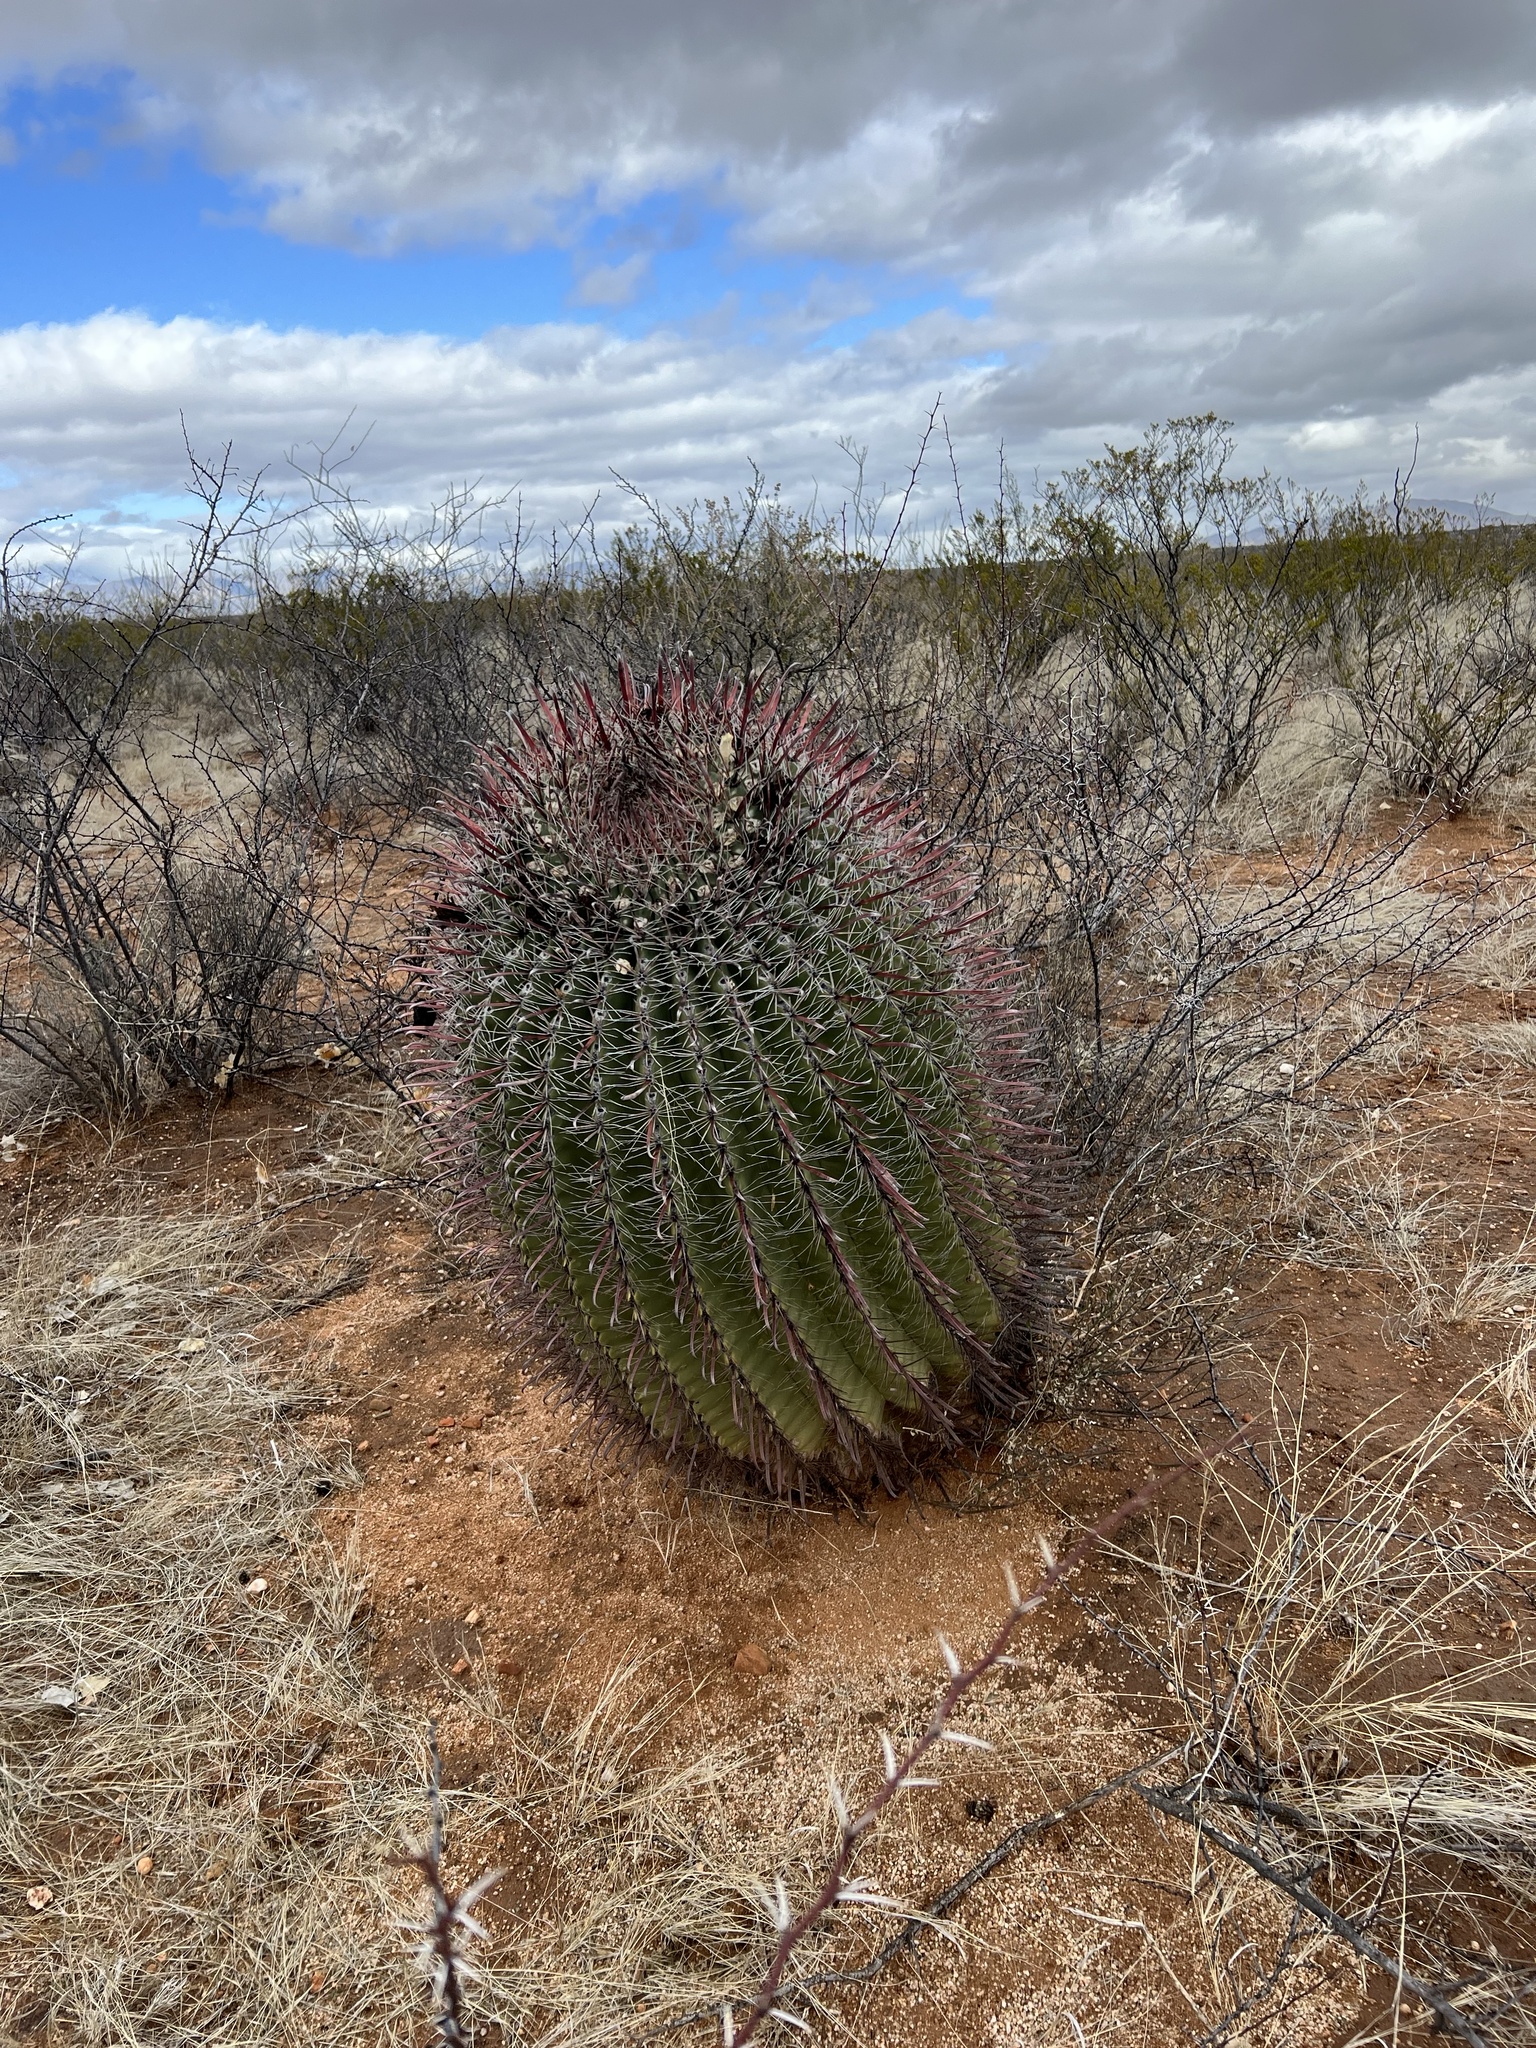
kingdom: Plantae
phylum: Tracheophyta
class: Magnoliopsida
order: Caryophyllales
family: Cactaceae
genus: Ferocactus
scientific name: Ferocactus wislizeni
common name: Candy barrel cactus
